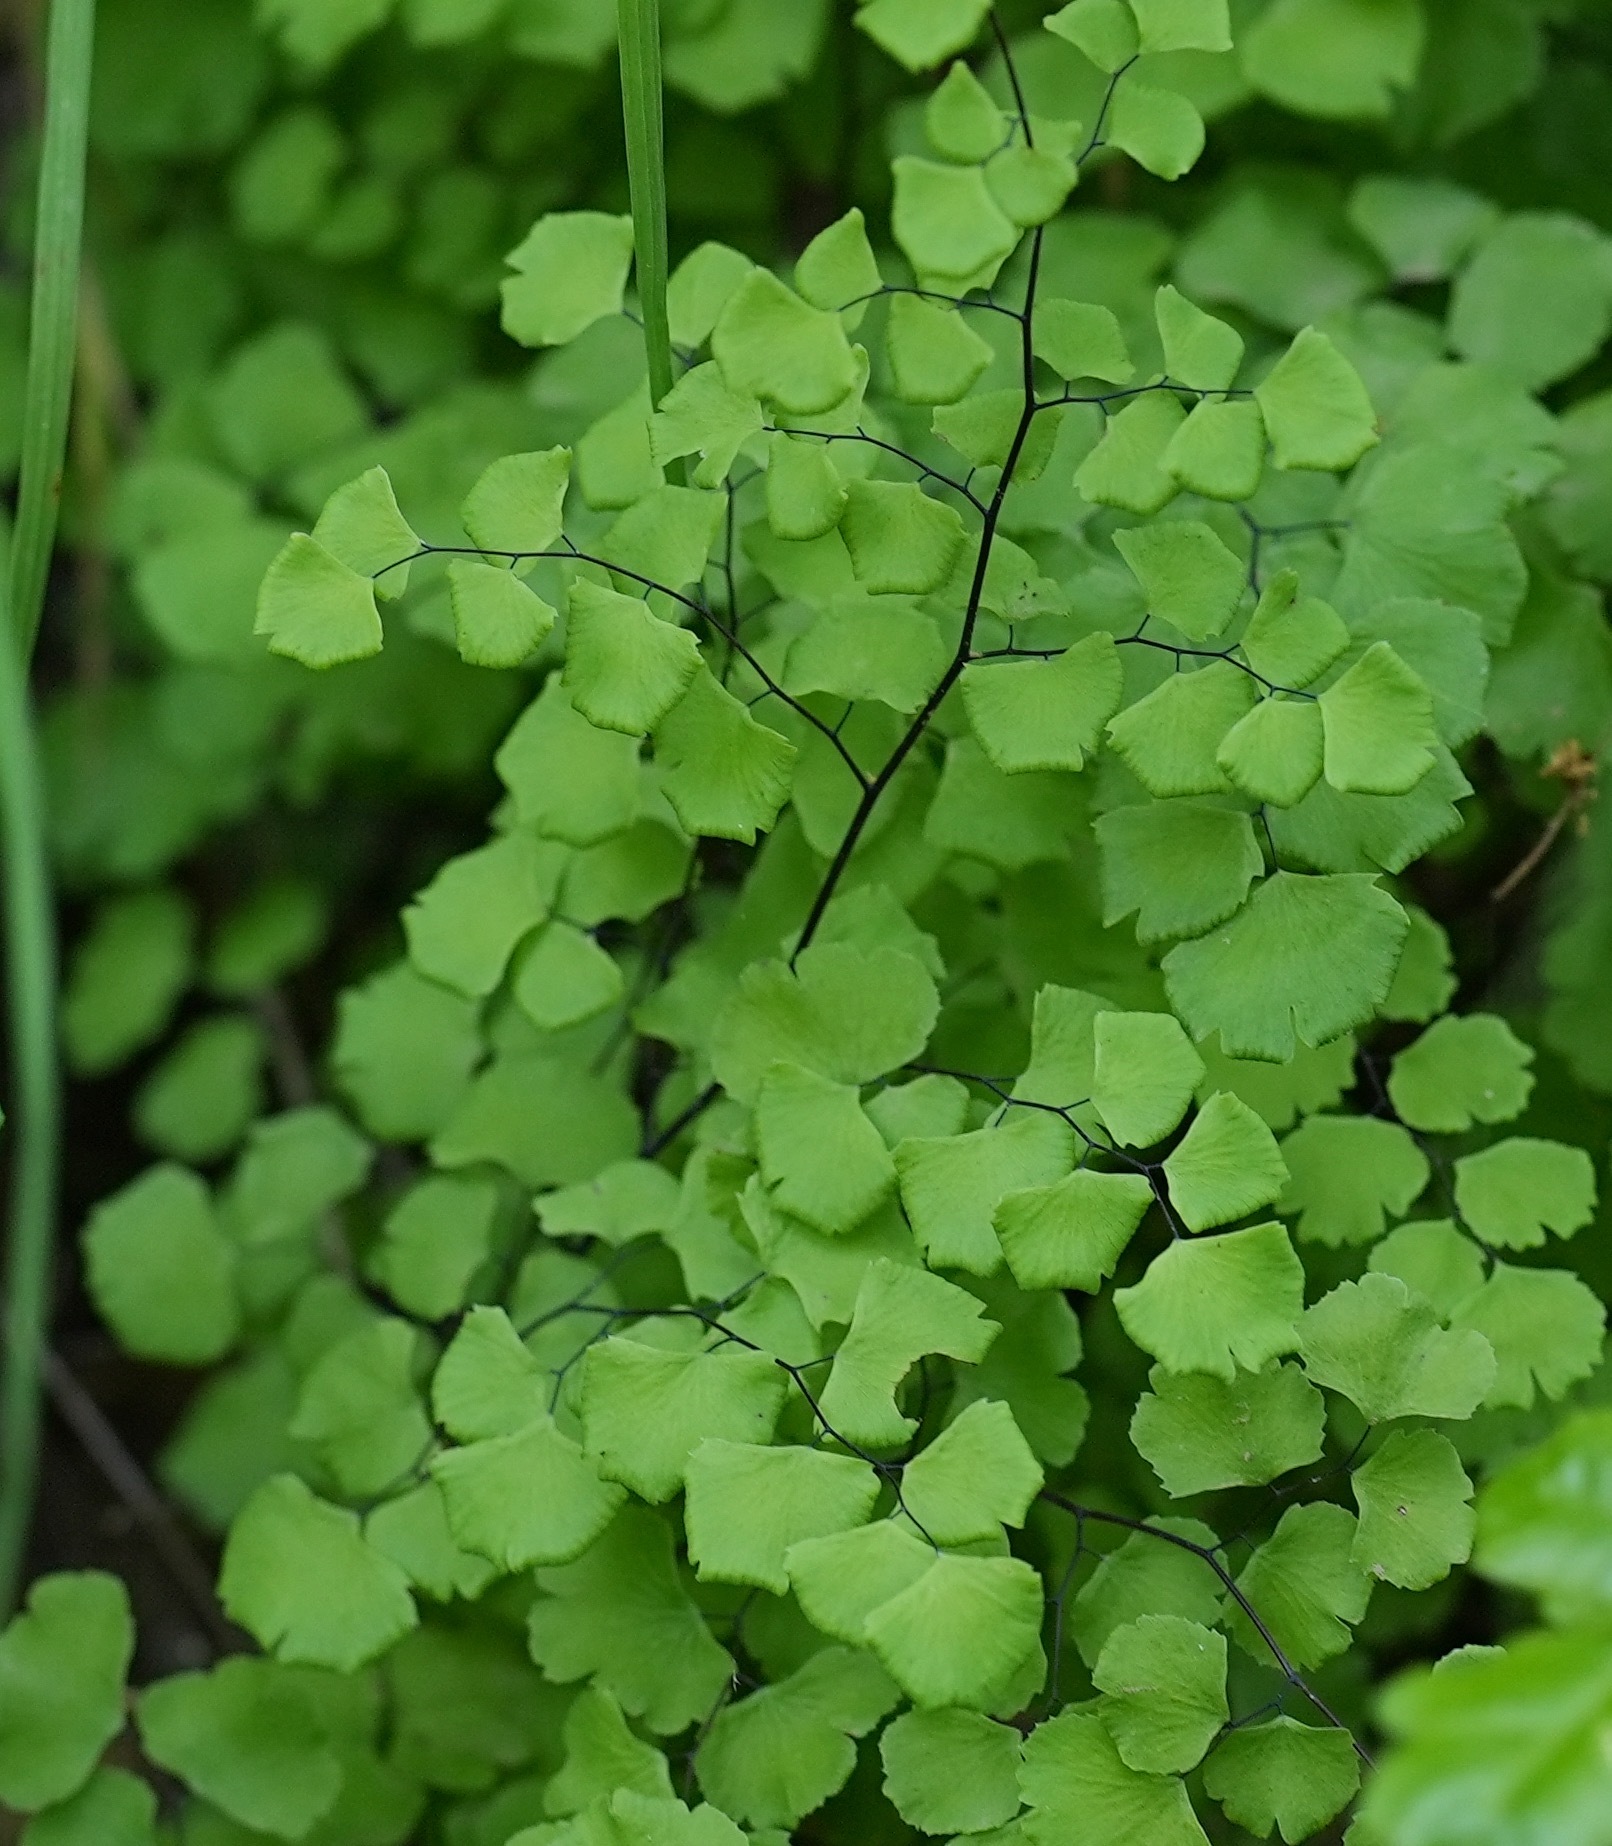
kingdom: Plantae
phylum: Tracheophyta
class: Polypodiopsida
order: Polypodiales
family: Pteridaceae
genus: Adiantum
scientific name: Adiantum jordanii
